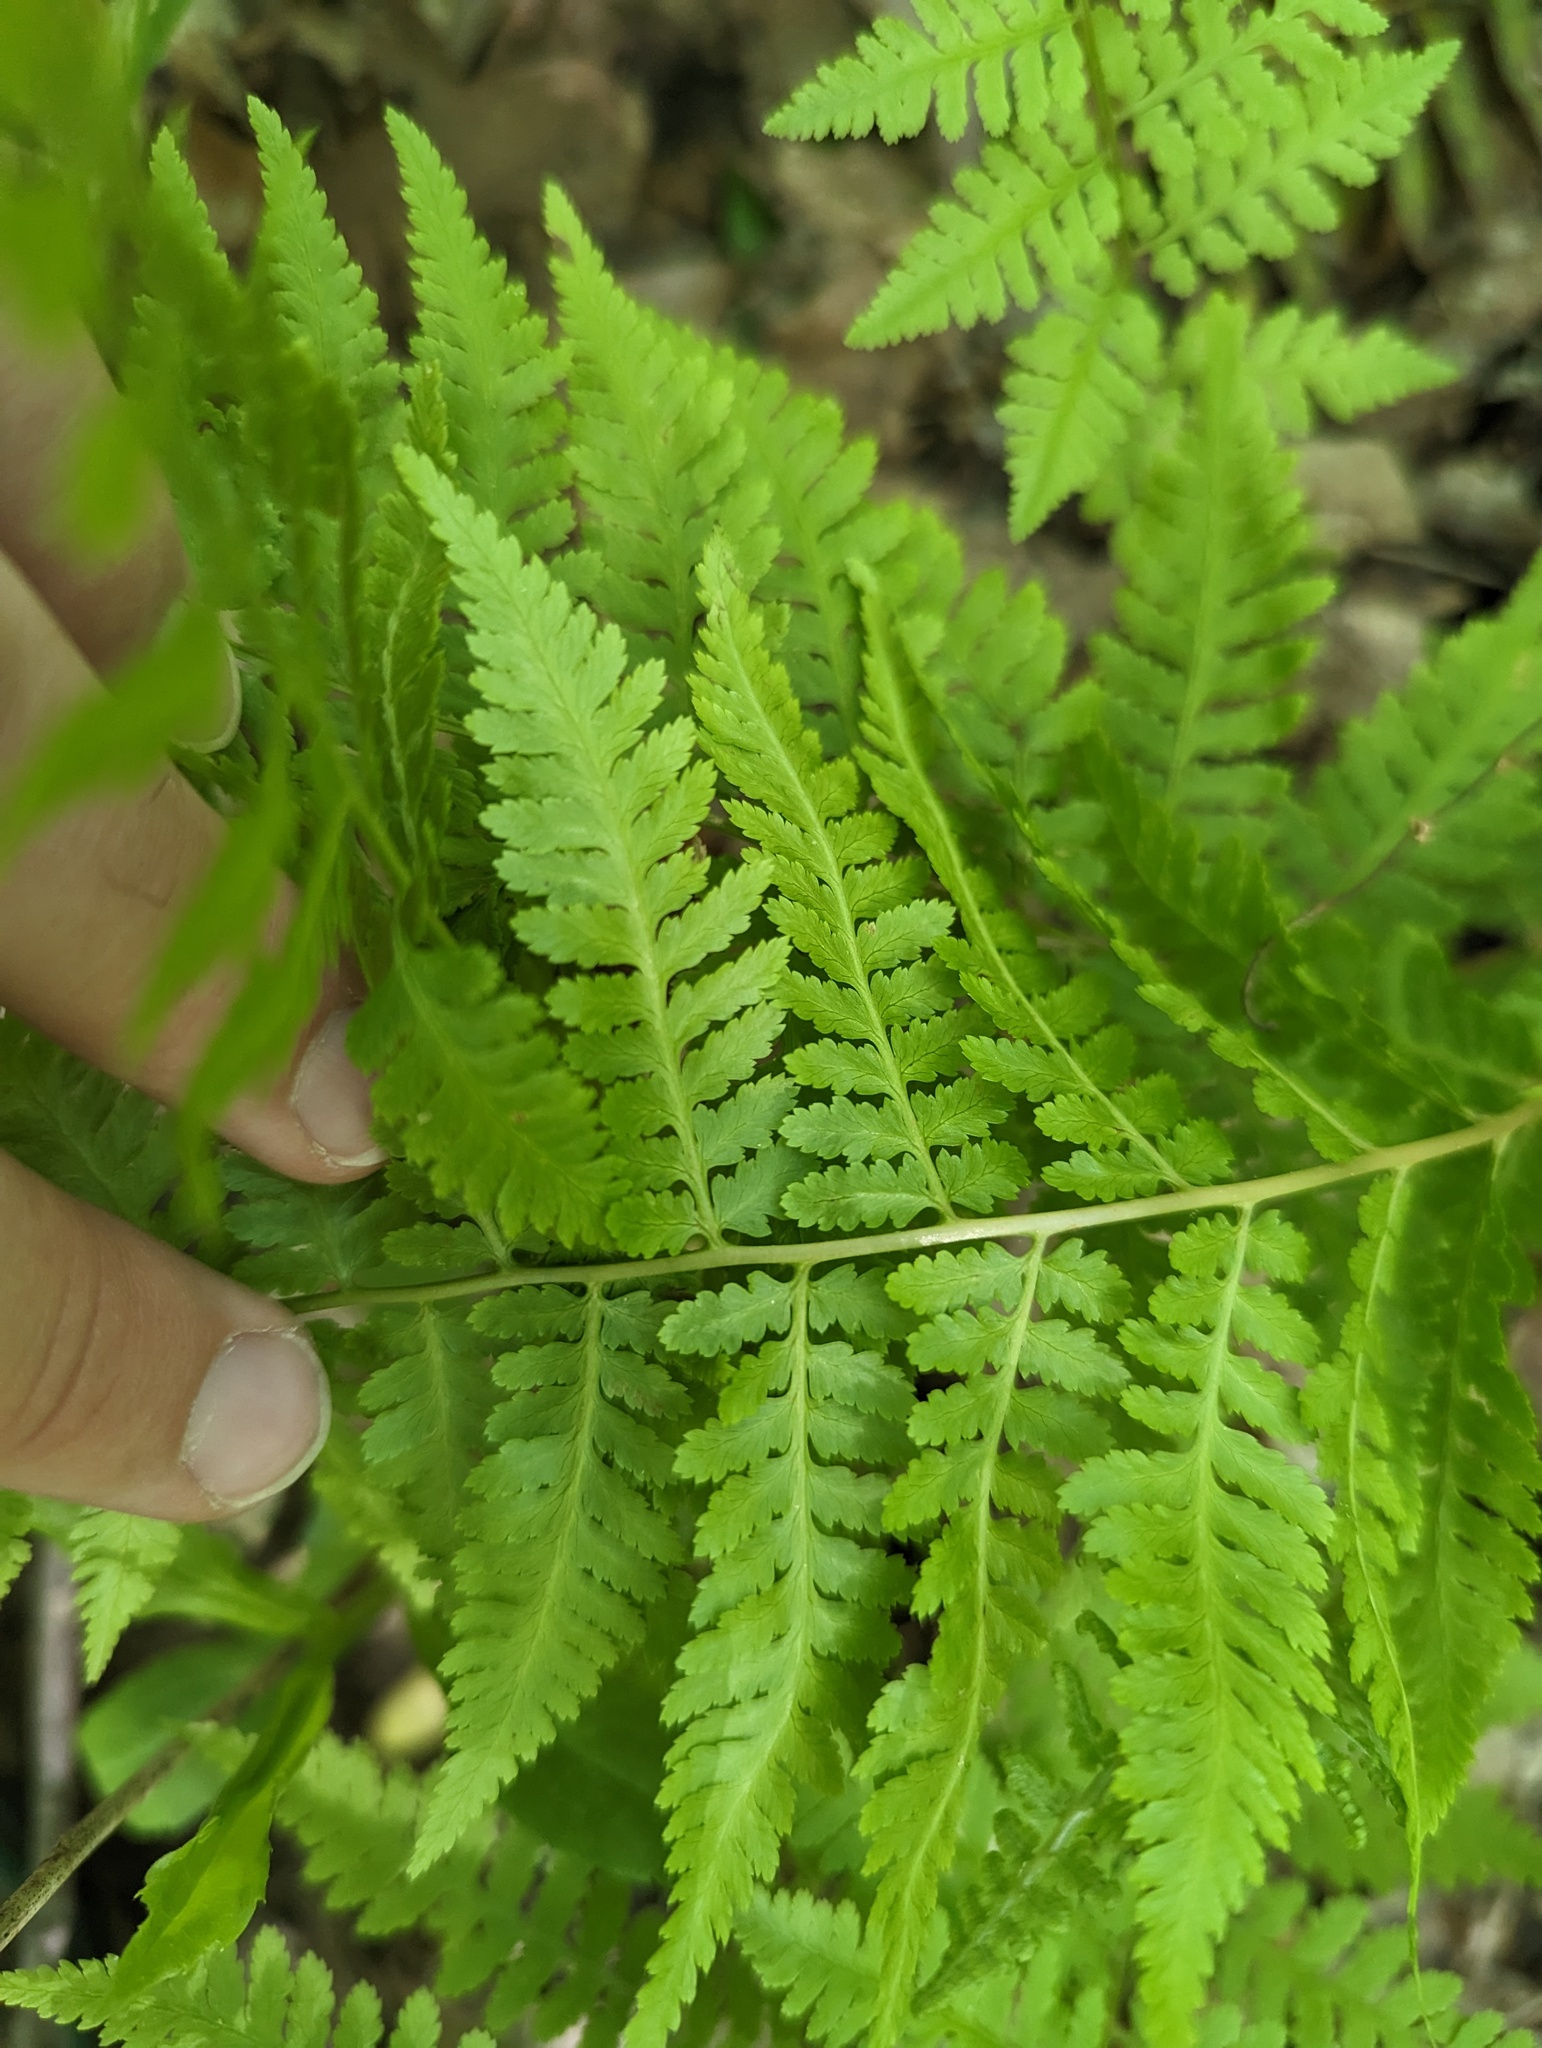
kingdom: Plantae
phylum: Tracheophyta
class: Polypodiopsida
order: Polypodiales
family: Athyriaceae
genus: Athyrium
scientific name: Athyrium asplenioides
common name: Southern lady fern
